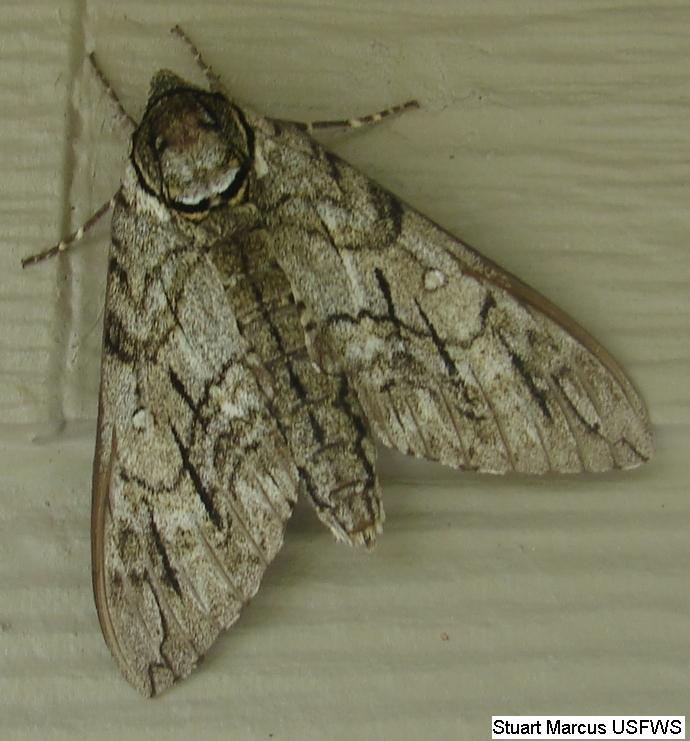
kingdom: Animalia
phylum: Arthropoda
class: Insecta
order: Lepidoptera
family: Sphingidae
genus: Ceratomia
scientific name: Ceratomia undulosa
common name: Waved sphinx
